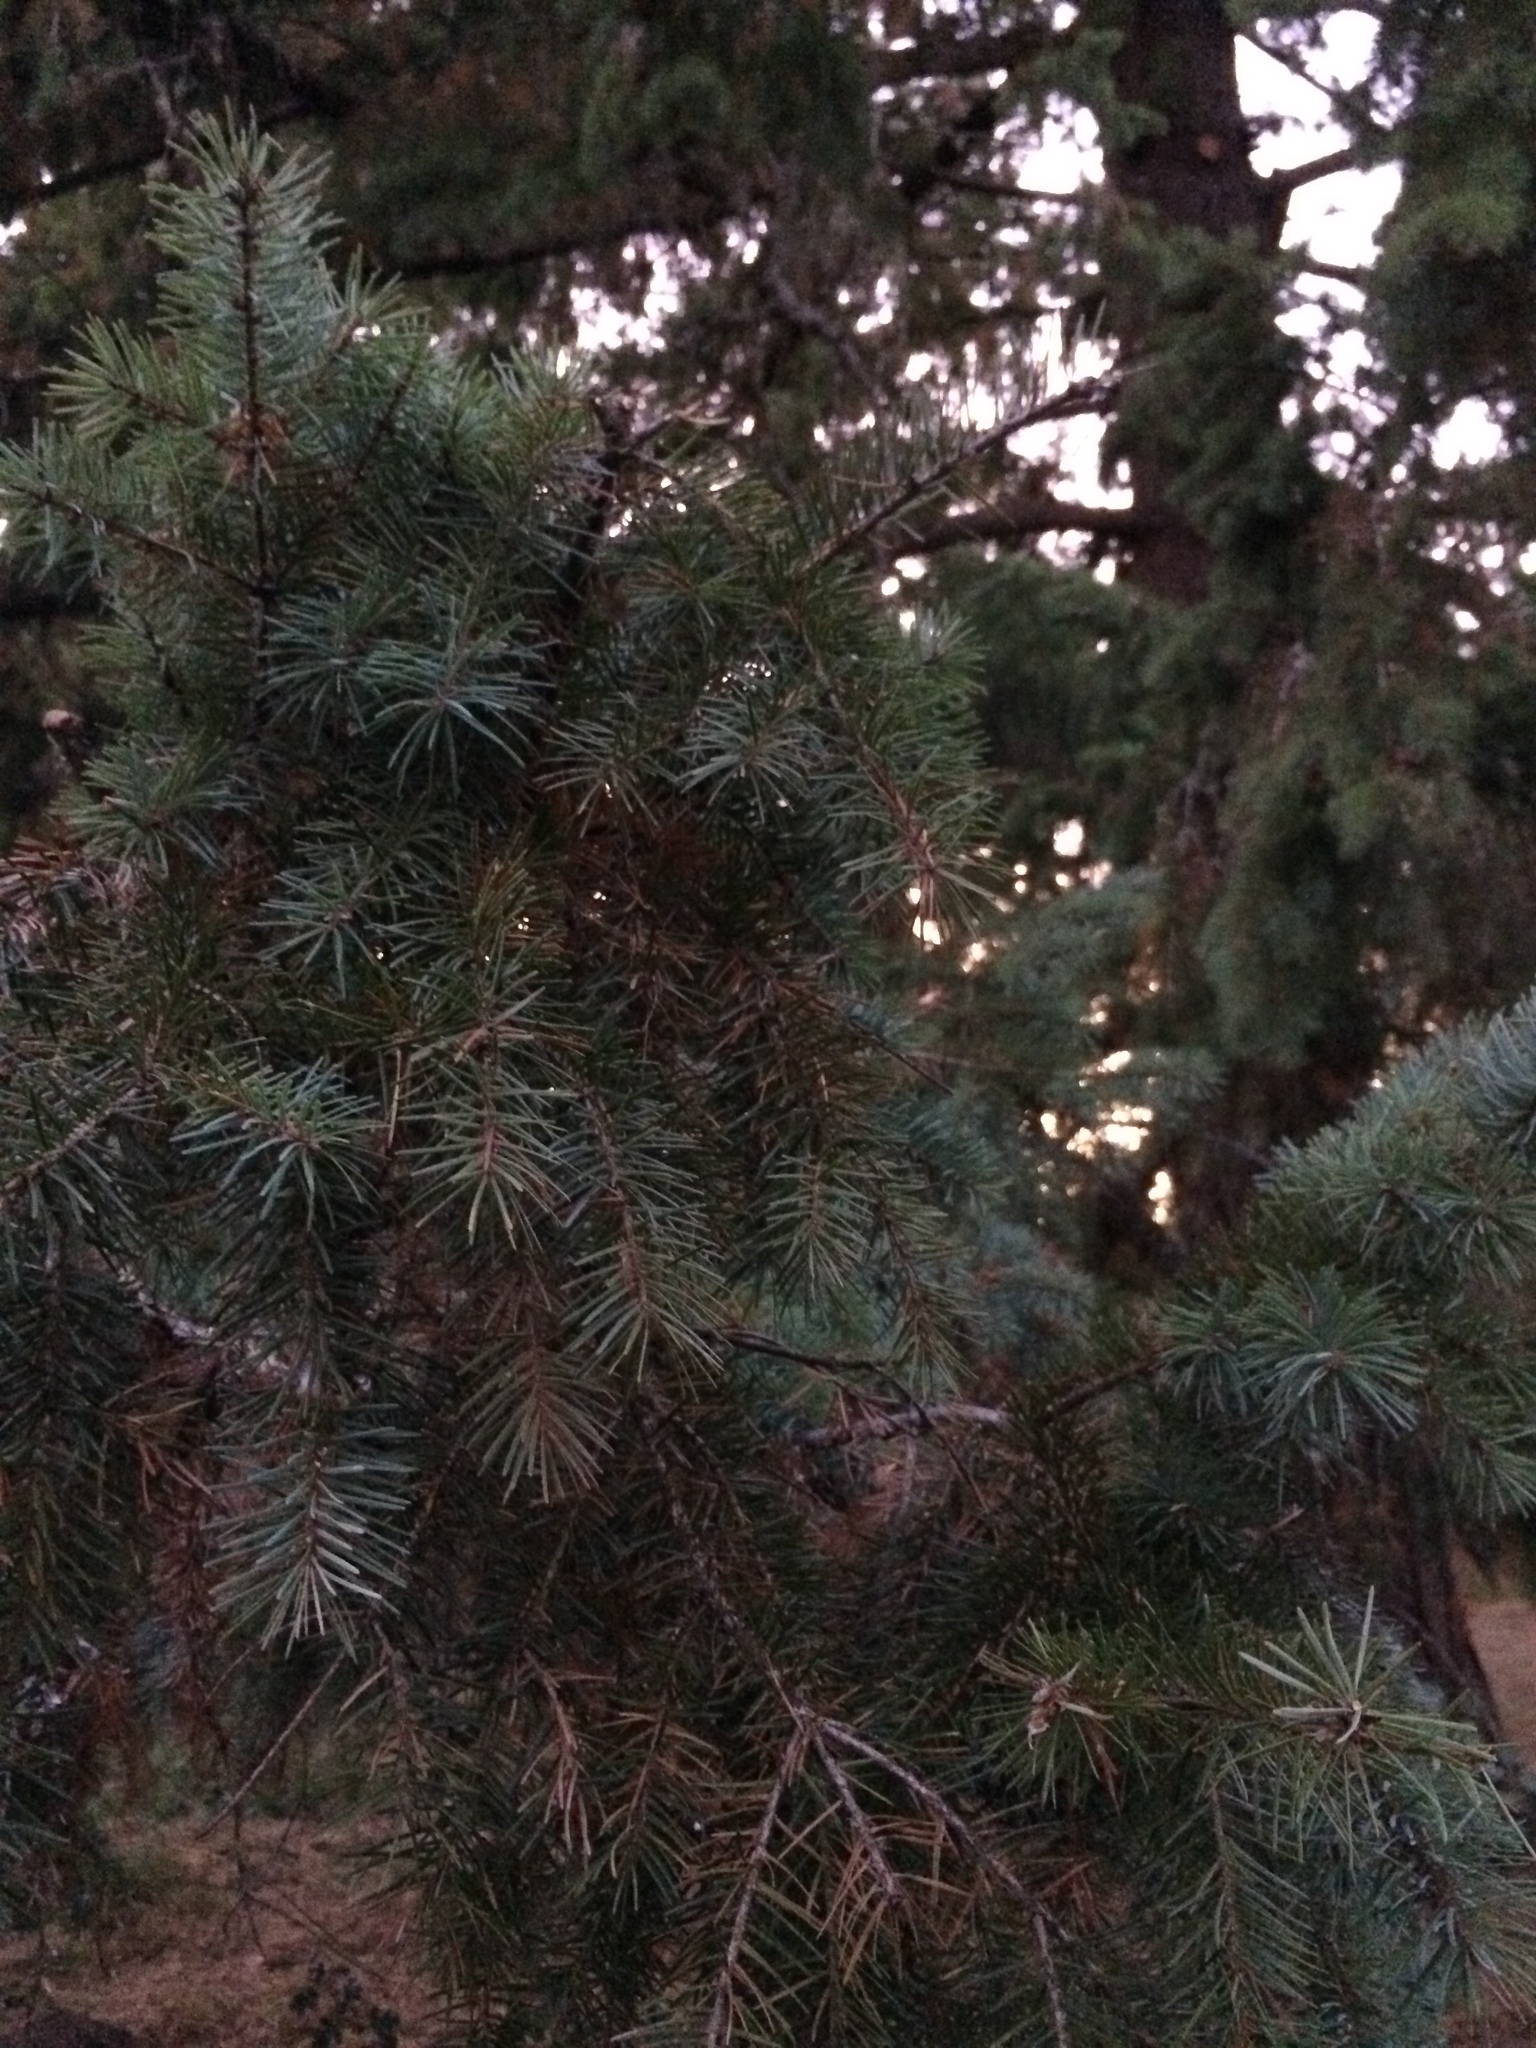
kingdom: Plantae
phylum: Tracheophyta
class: Pinopsida
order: Pinales
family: Pinaceae
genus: Pseudotsuga
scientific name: Pseudotsuga menziesii
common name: Douglas fir
